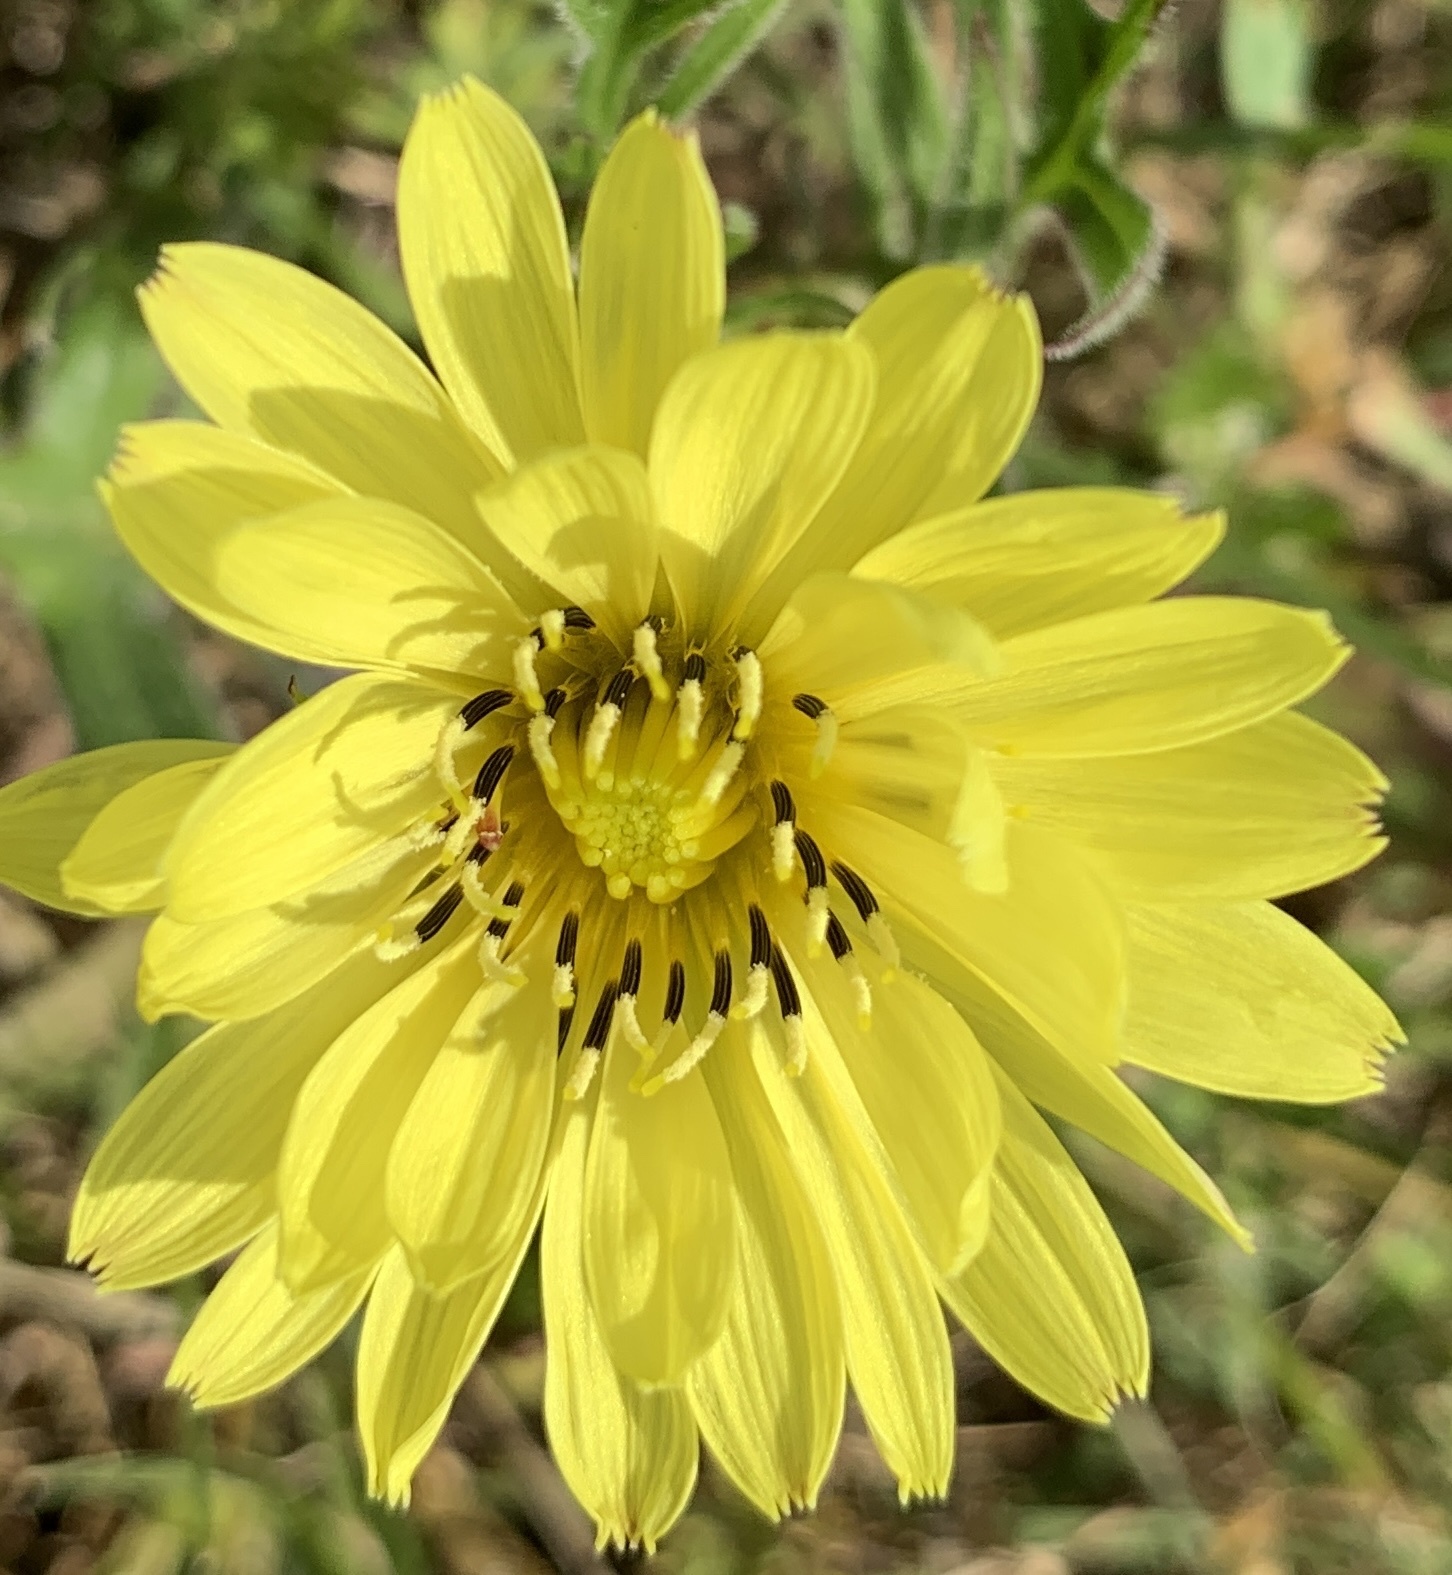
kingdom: Plantae
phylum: Tracheophyta
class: Magnoliopsida
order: Asterales
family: Asteraceae
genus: Pyrrhopappus
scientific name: Pyrrhopappus pauciflorus
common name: Texas false dandelion
